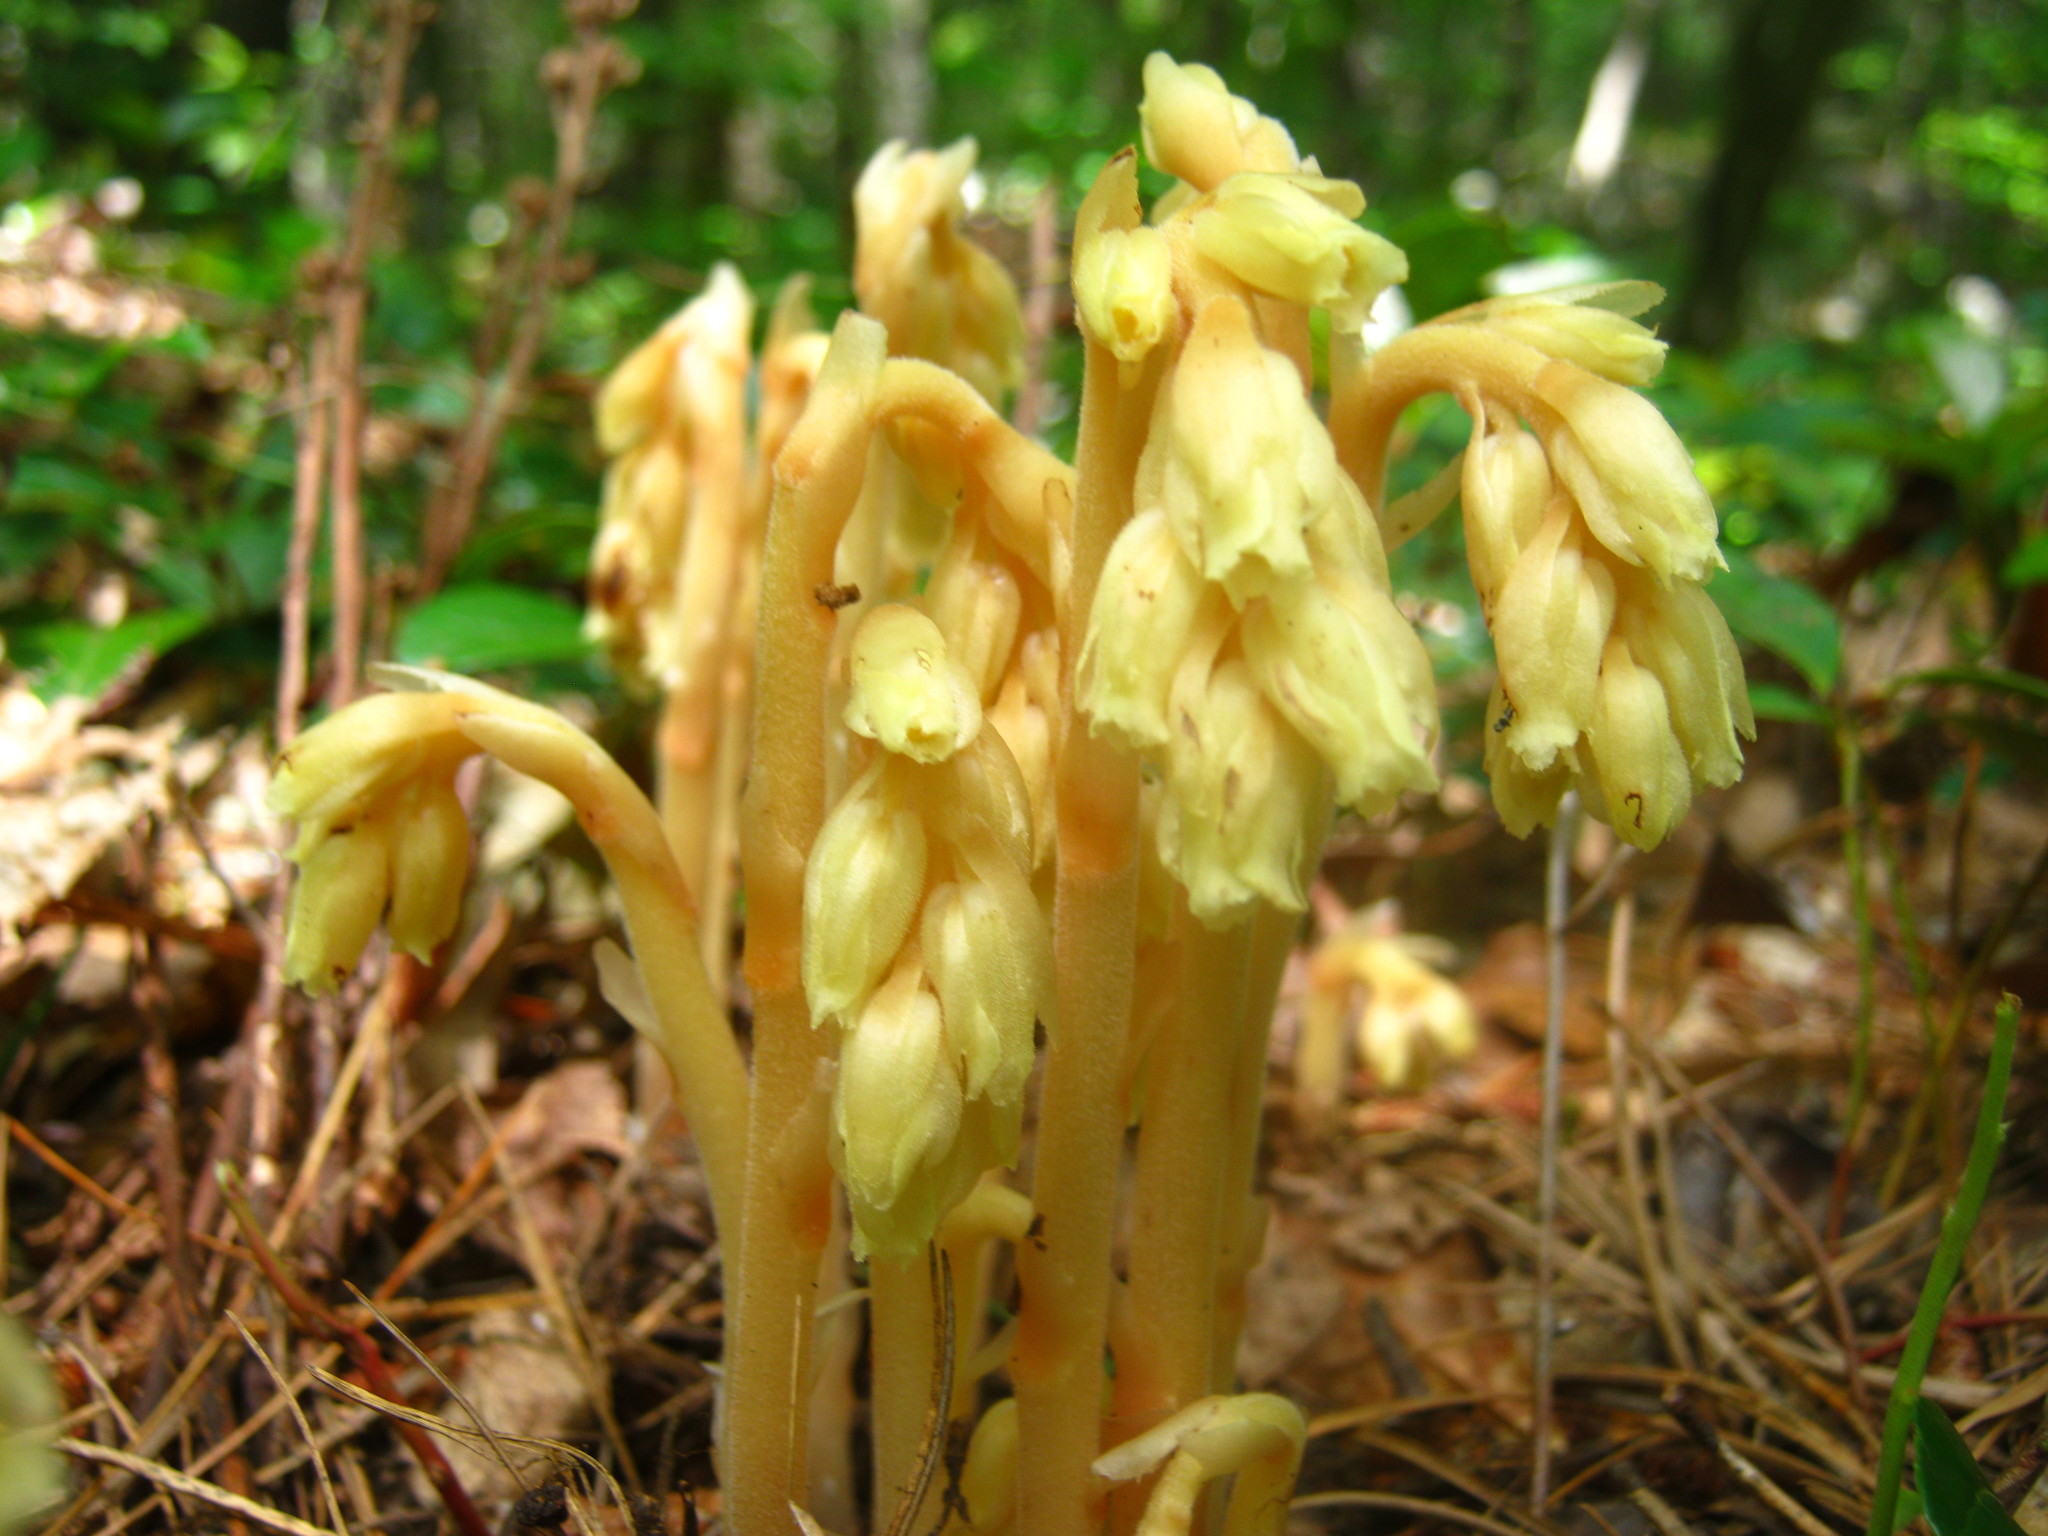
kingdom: Plantae
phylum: Tracheophyta
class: Magnoliopsida
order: Ericales
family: Ericaceae
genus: Hypopitys
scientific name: Hypopitys monotropa
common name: Yellow bird's-nest
